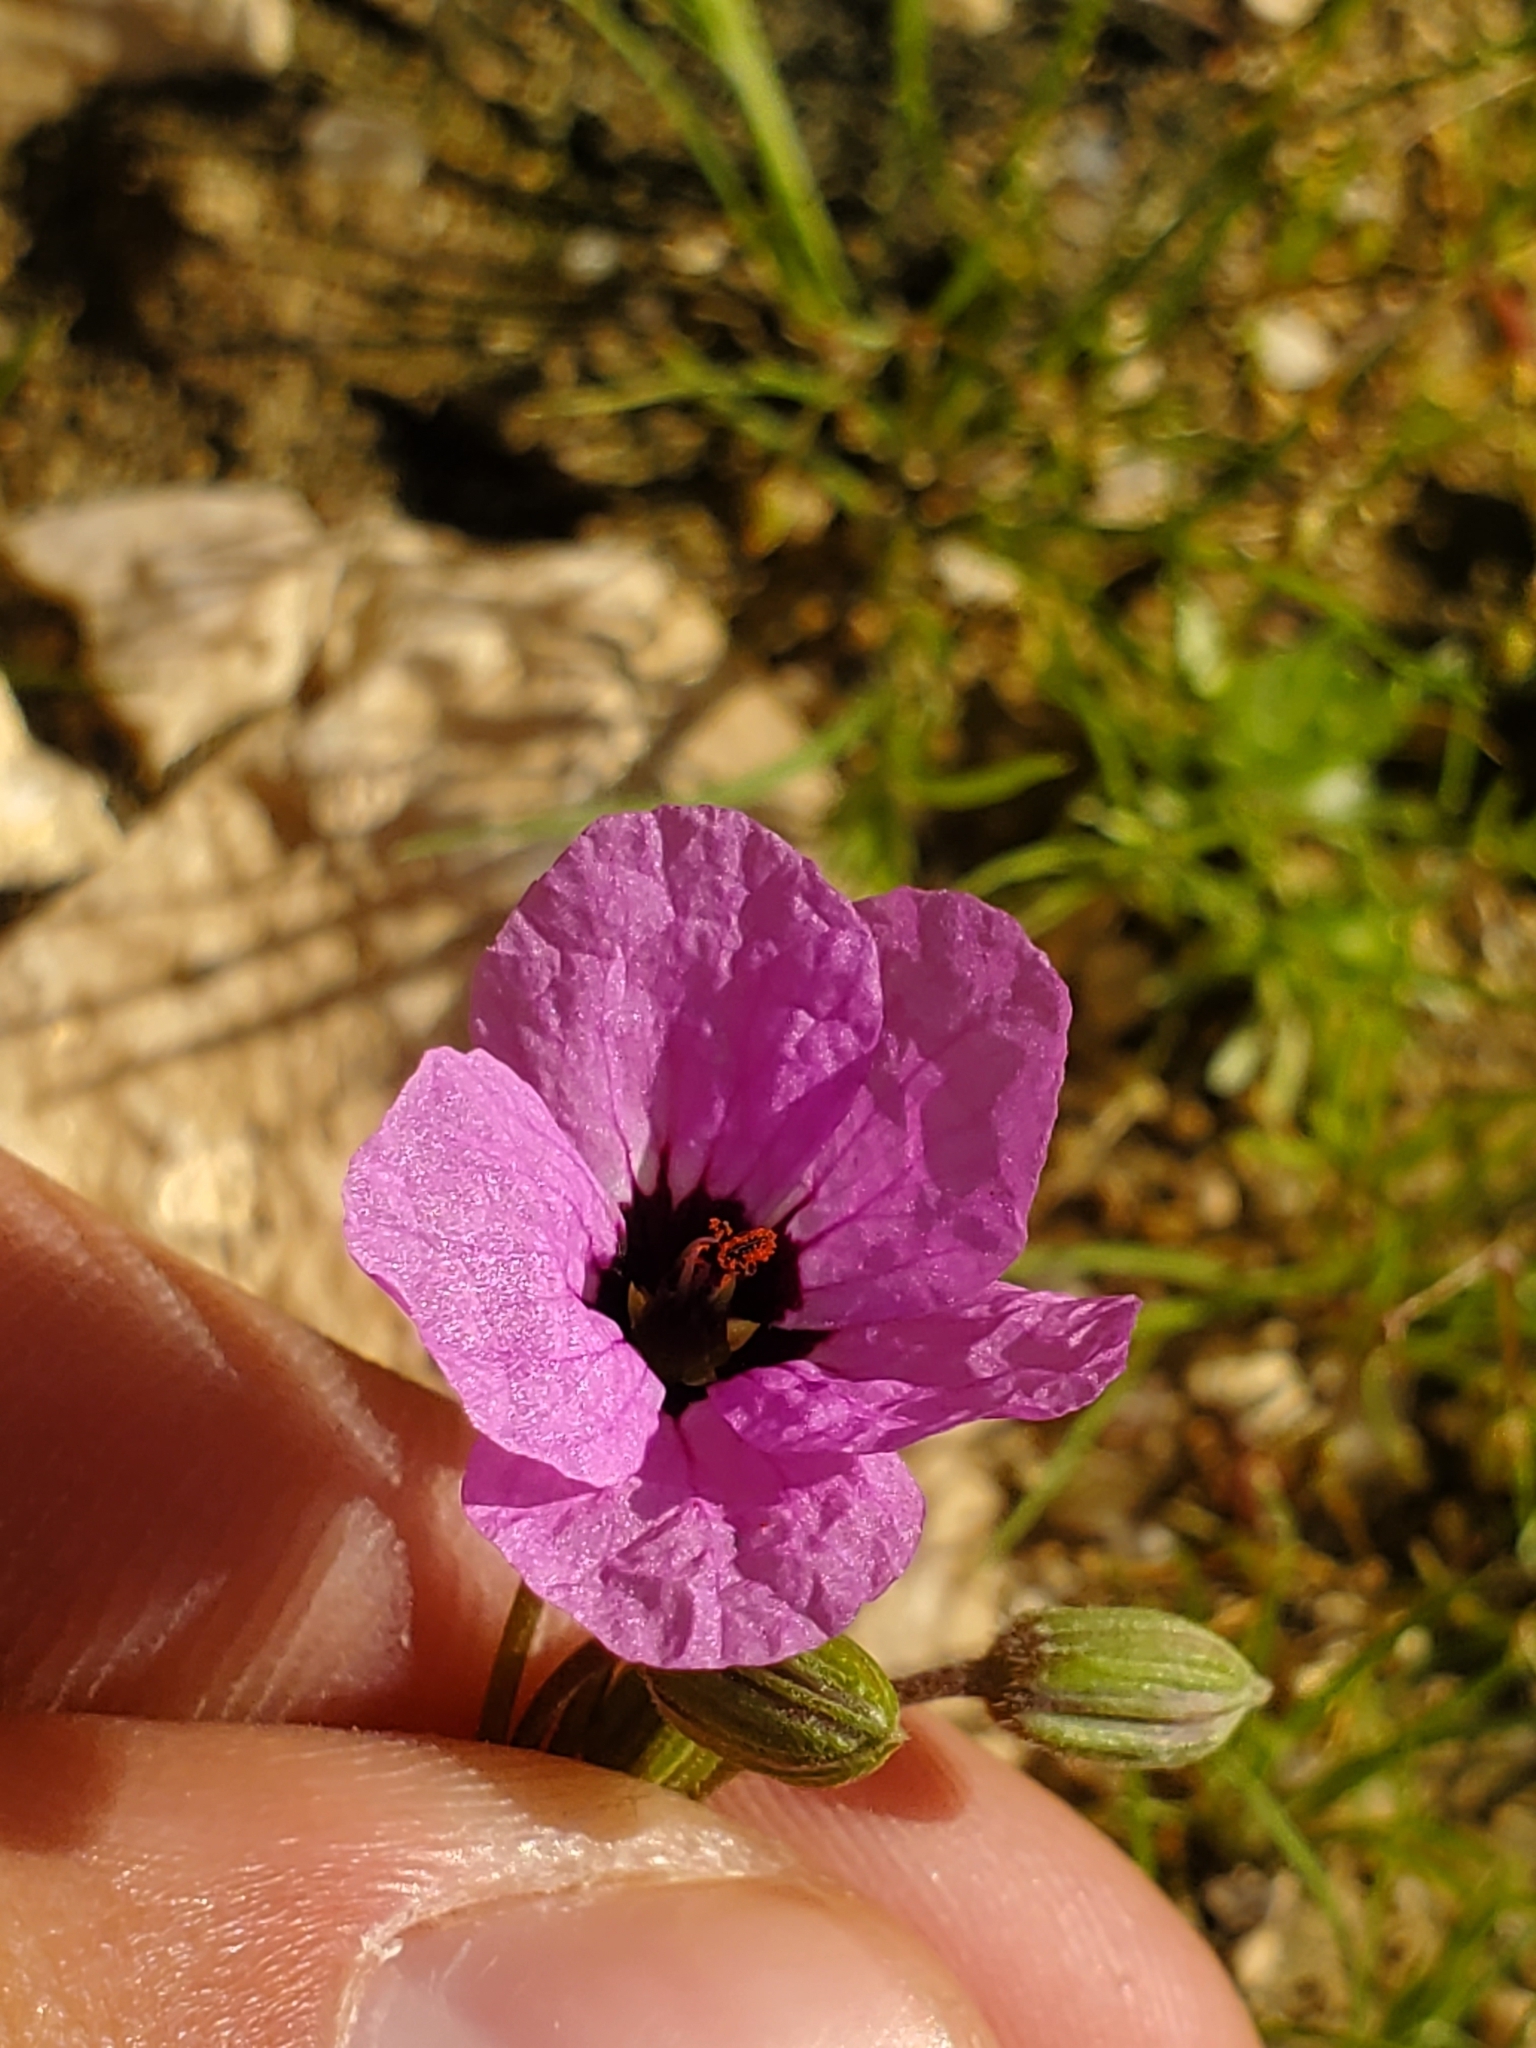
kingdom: Plantae
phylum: Tracheophyta
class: Magnoliopsida
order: Geraniales
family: Geraniaceae
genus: Erodium
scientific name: Erodium crassifolium
